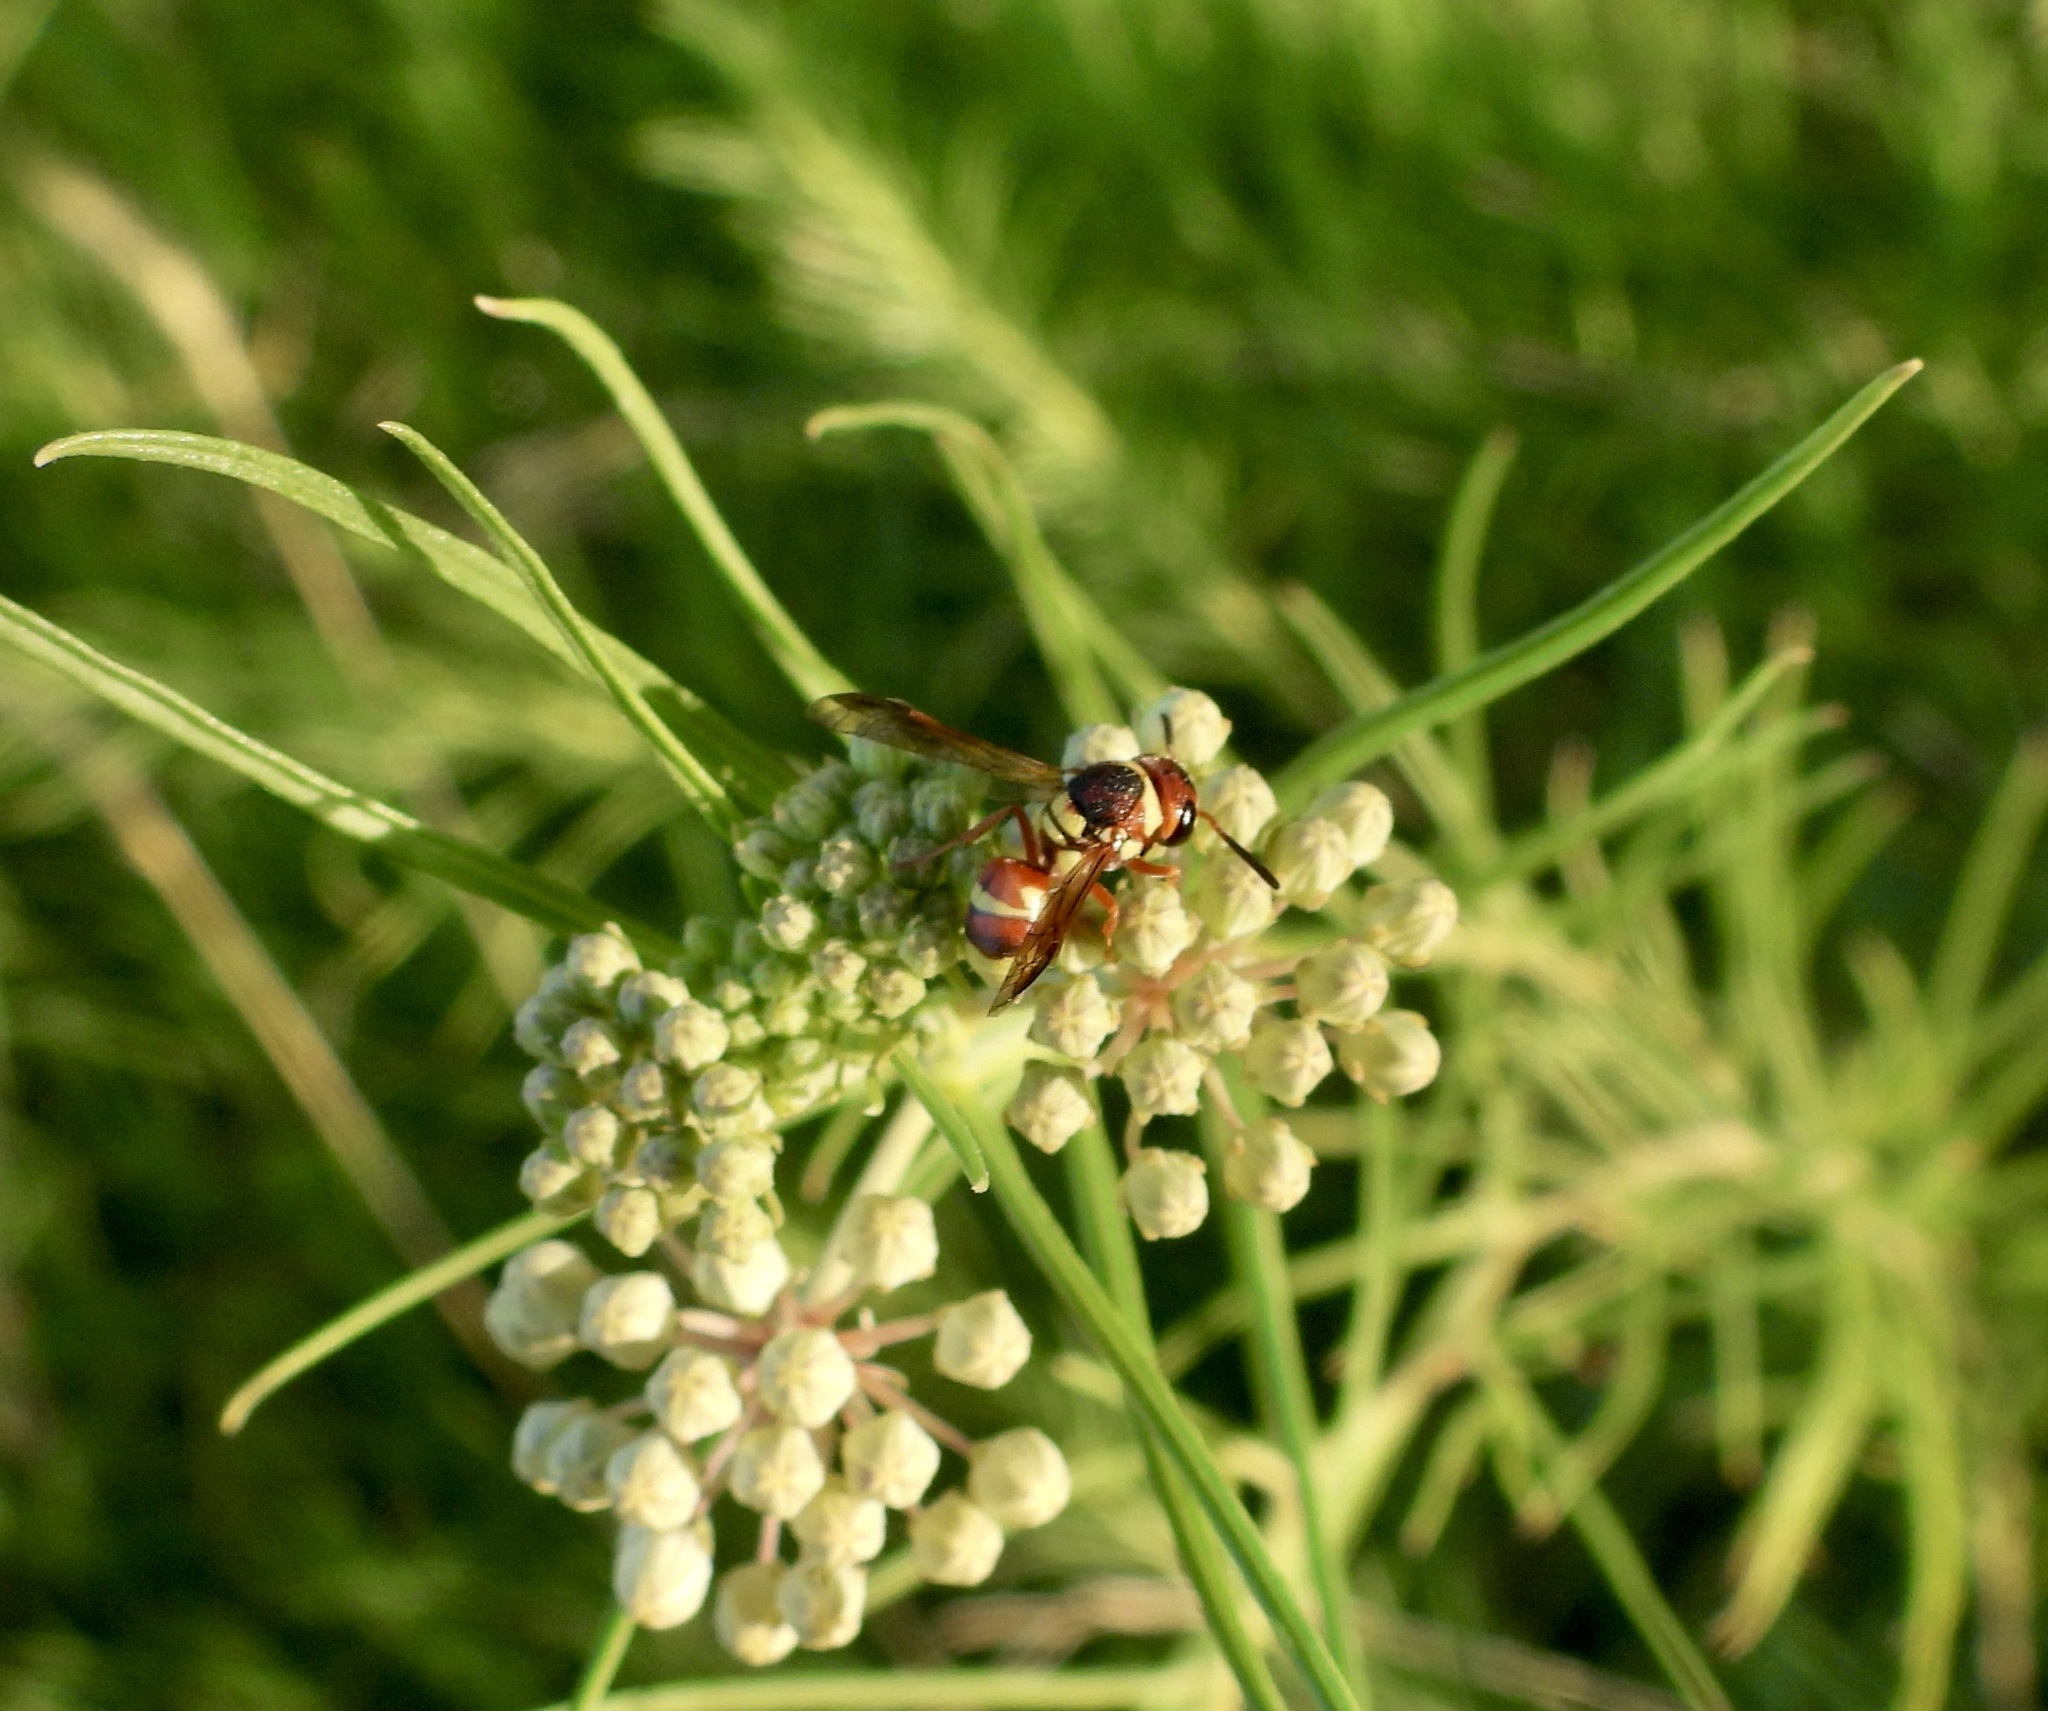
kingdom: Animalia
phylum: Arthropoda
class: Insecta
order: Hymenoptera
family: Eumenidae
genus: Euodynerus
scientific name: Euodynerus annulatus
